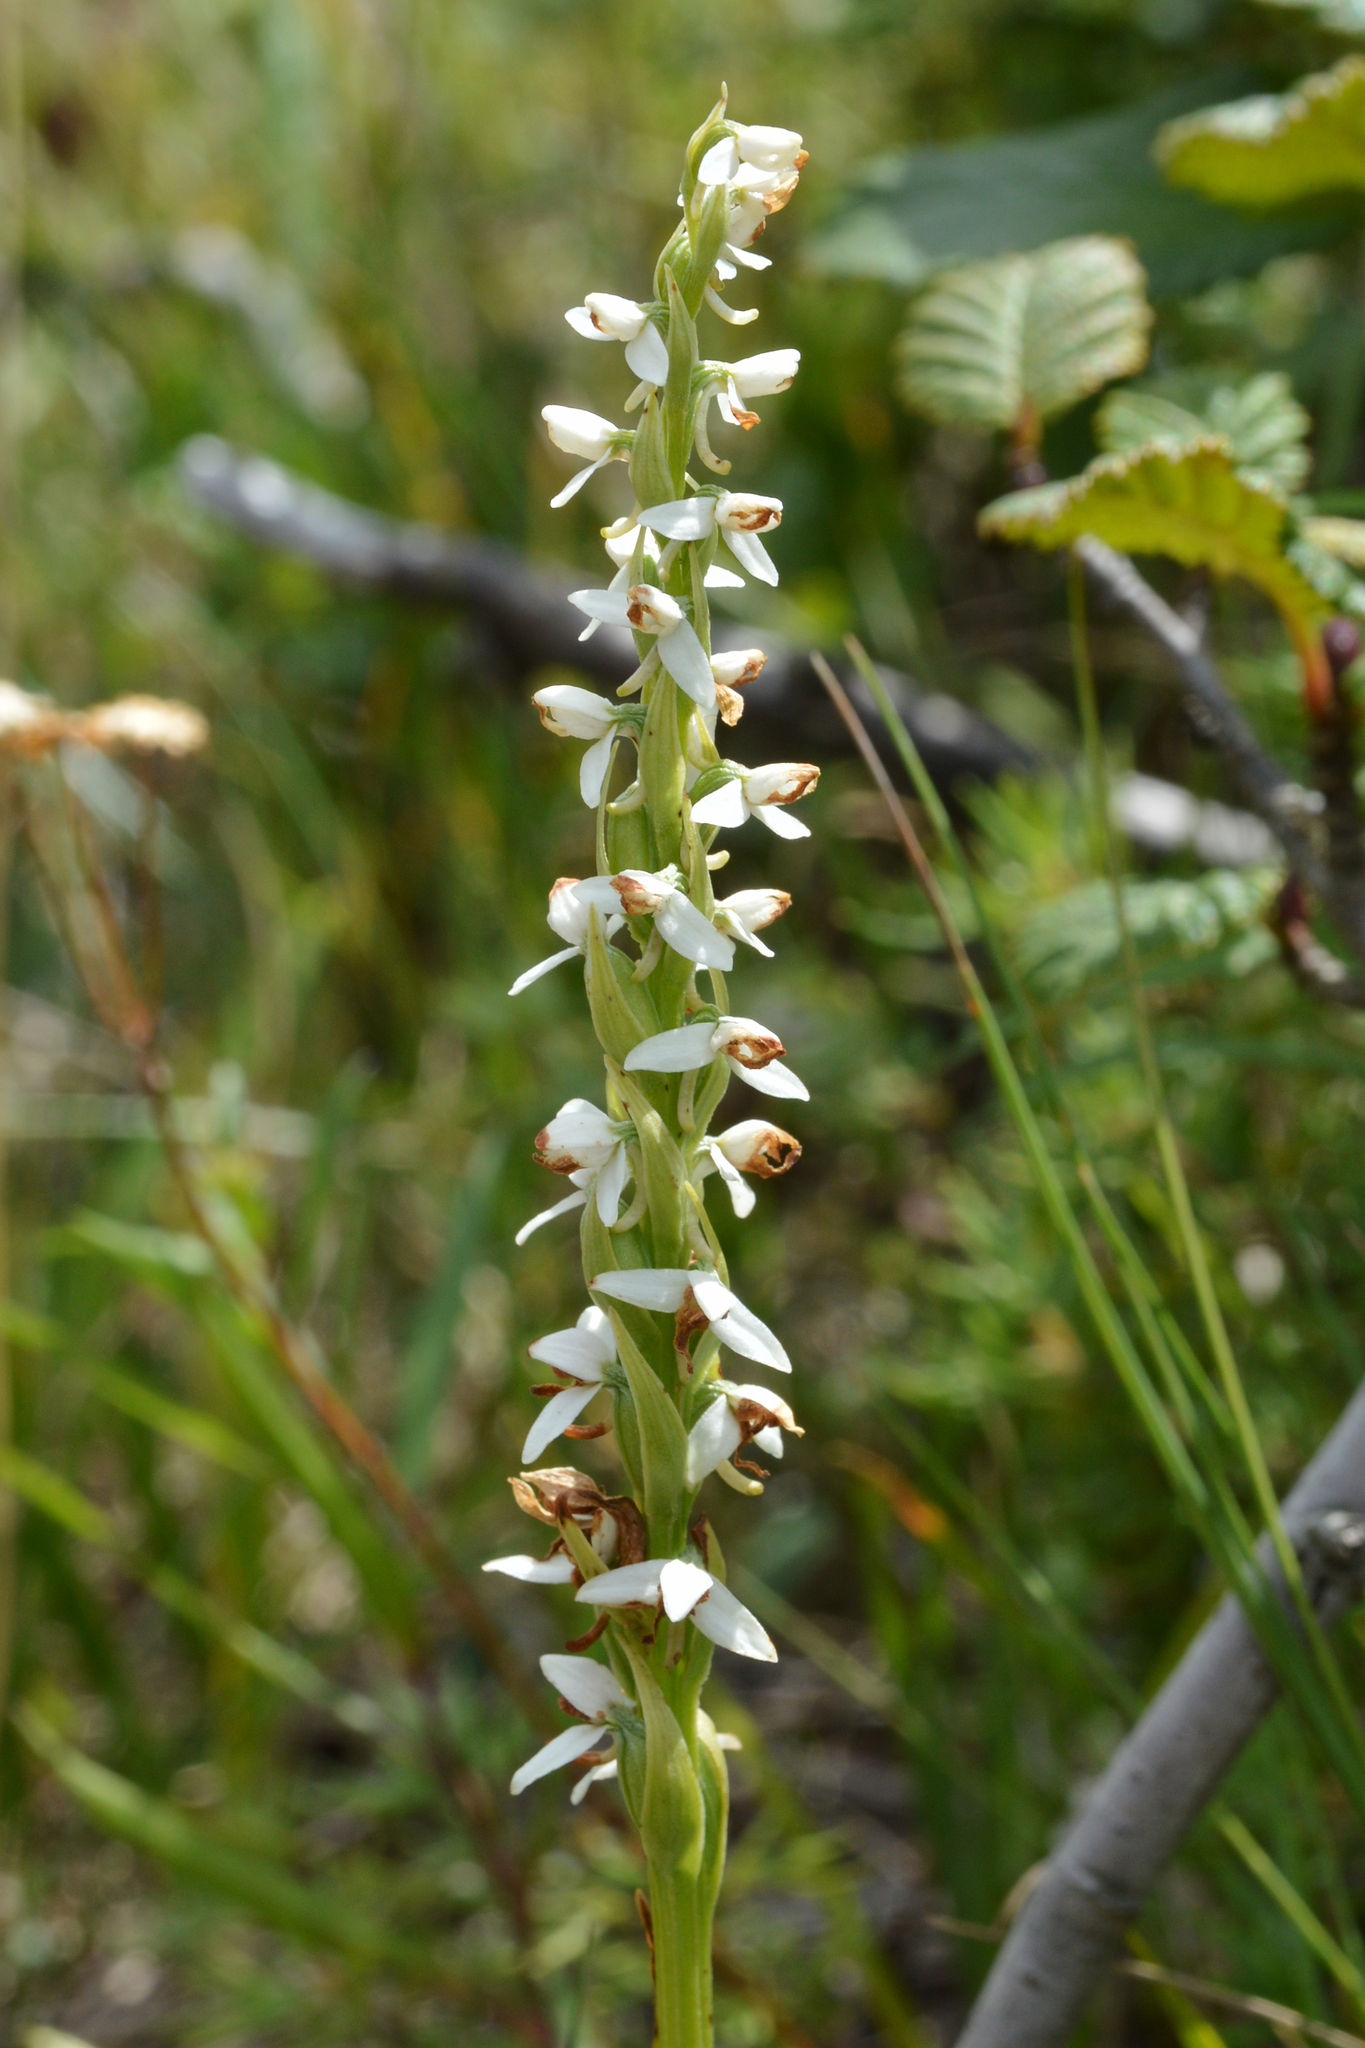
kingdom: Plantae
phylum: Tracheophyta
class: Liliopsida
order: Asparagales
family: Orchidaceae
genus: Platanthera
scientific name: Platanthera dilatata
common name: Bog candles
